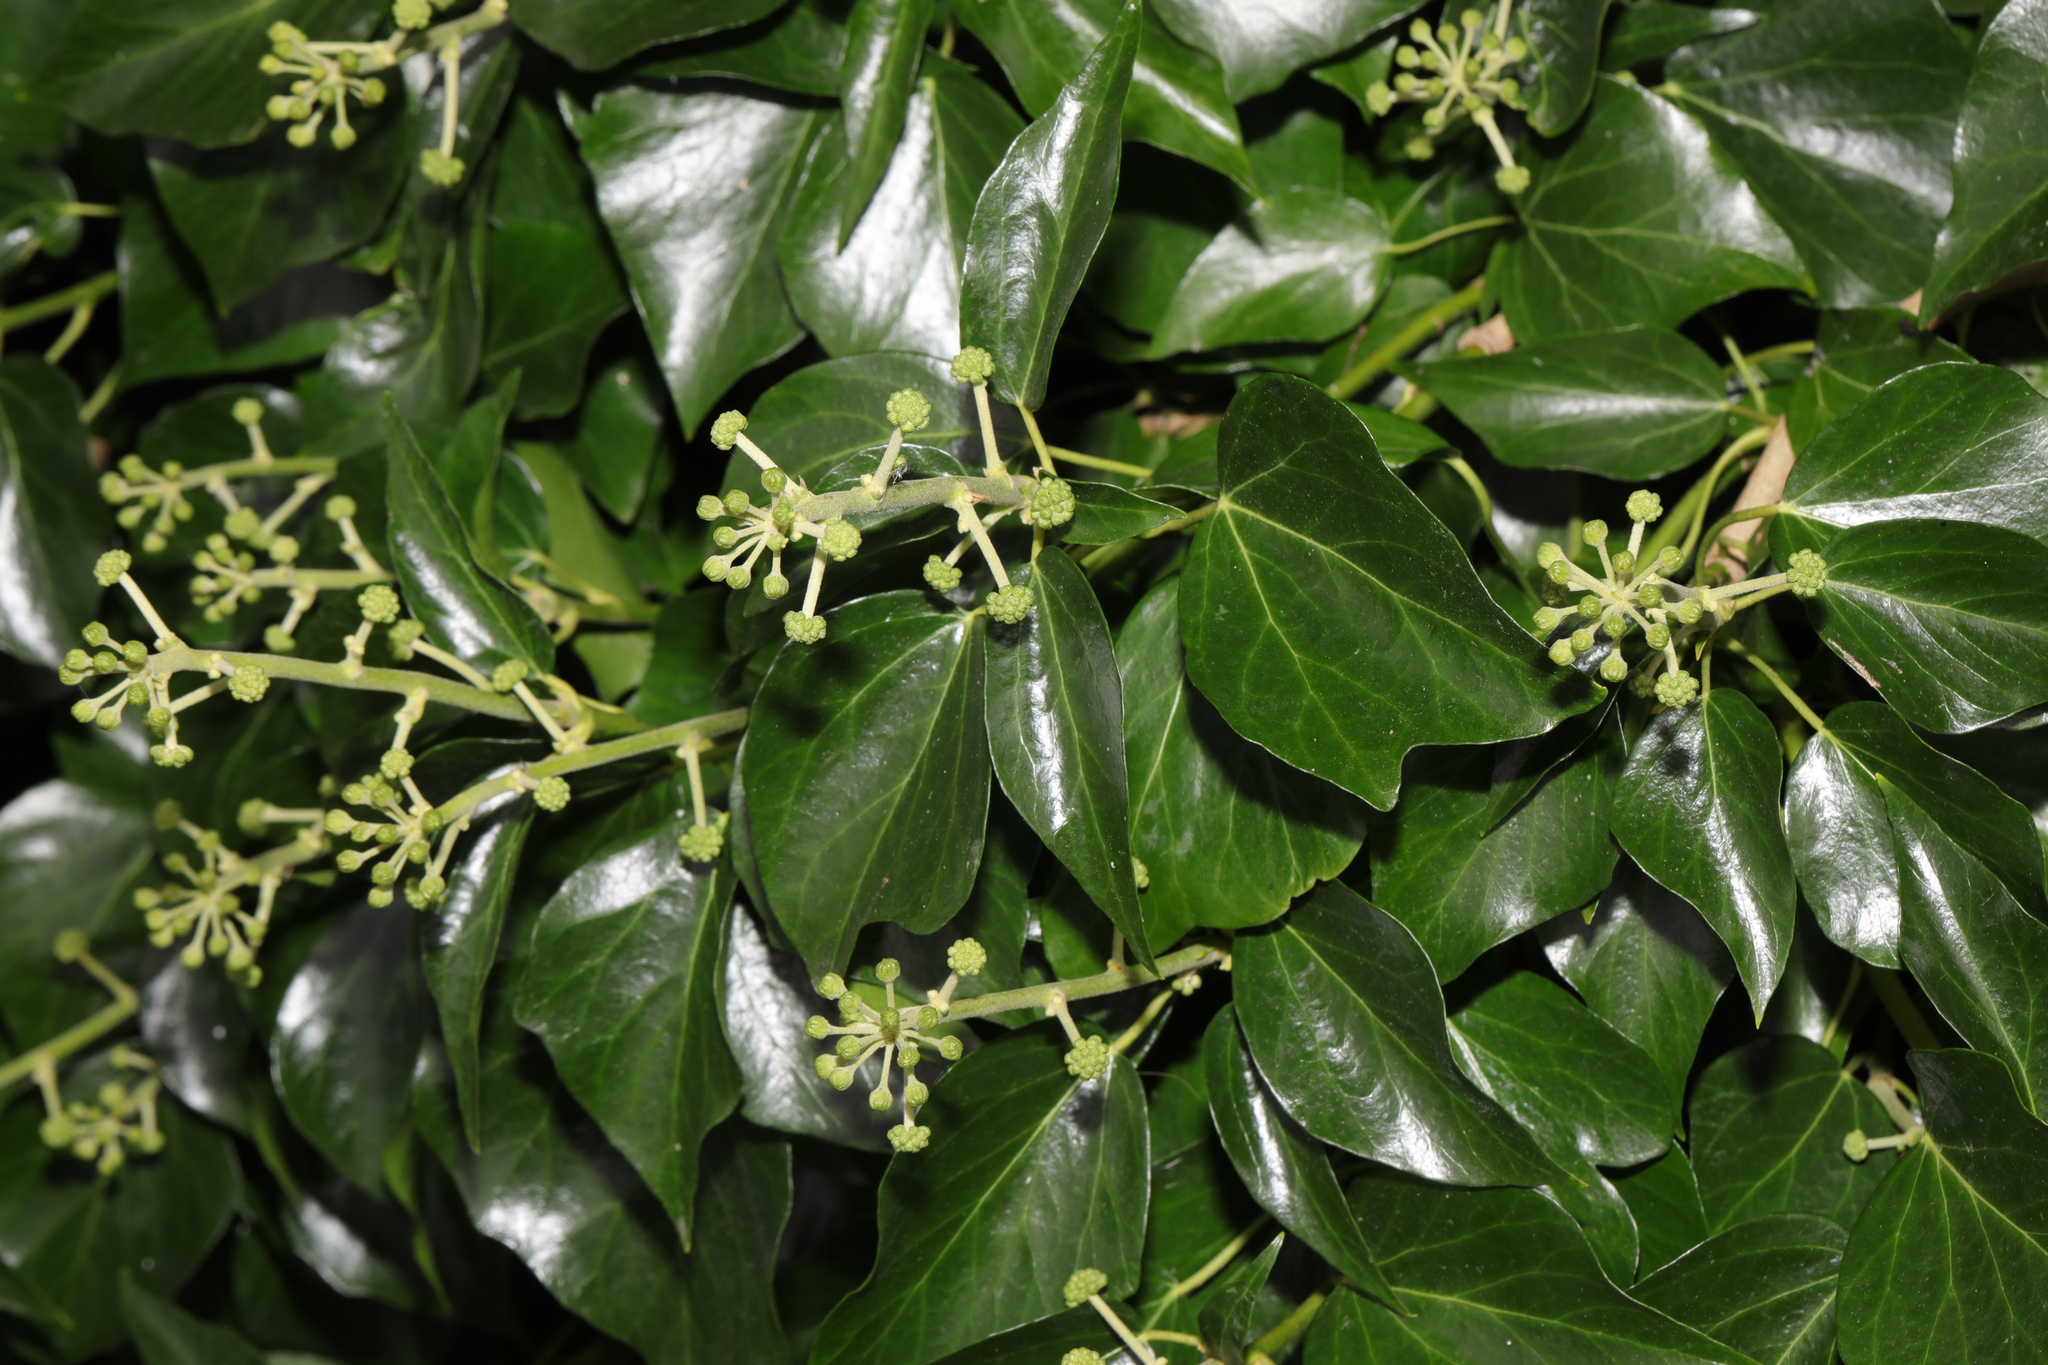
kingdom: Plantae
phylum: Tracheophyta
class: Magnoliopsida
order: Apiales
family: Araliaceae
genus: Hedera
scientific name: Hedera helix
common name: Ivy
